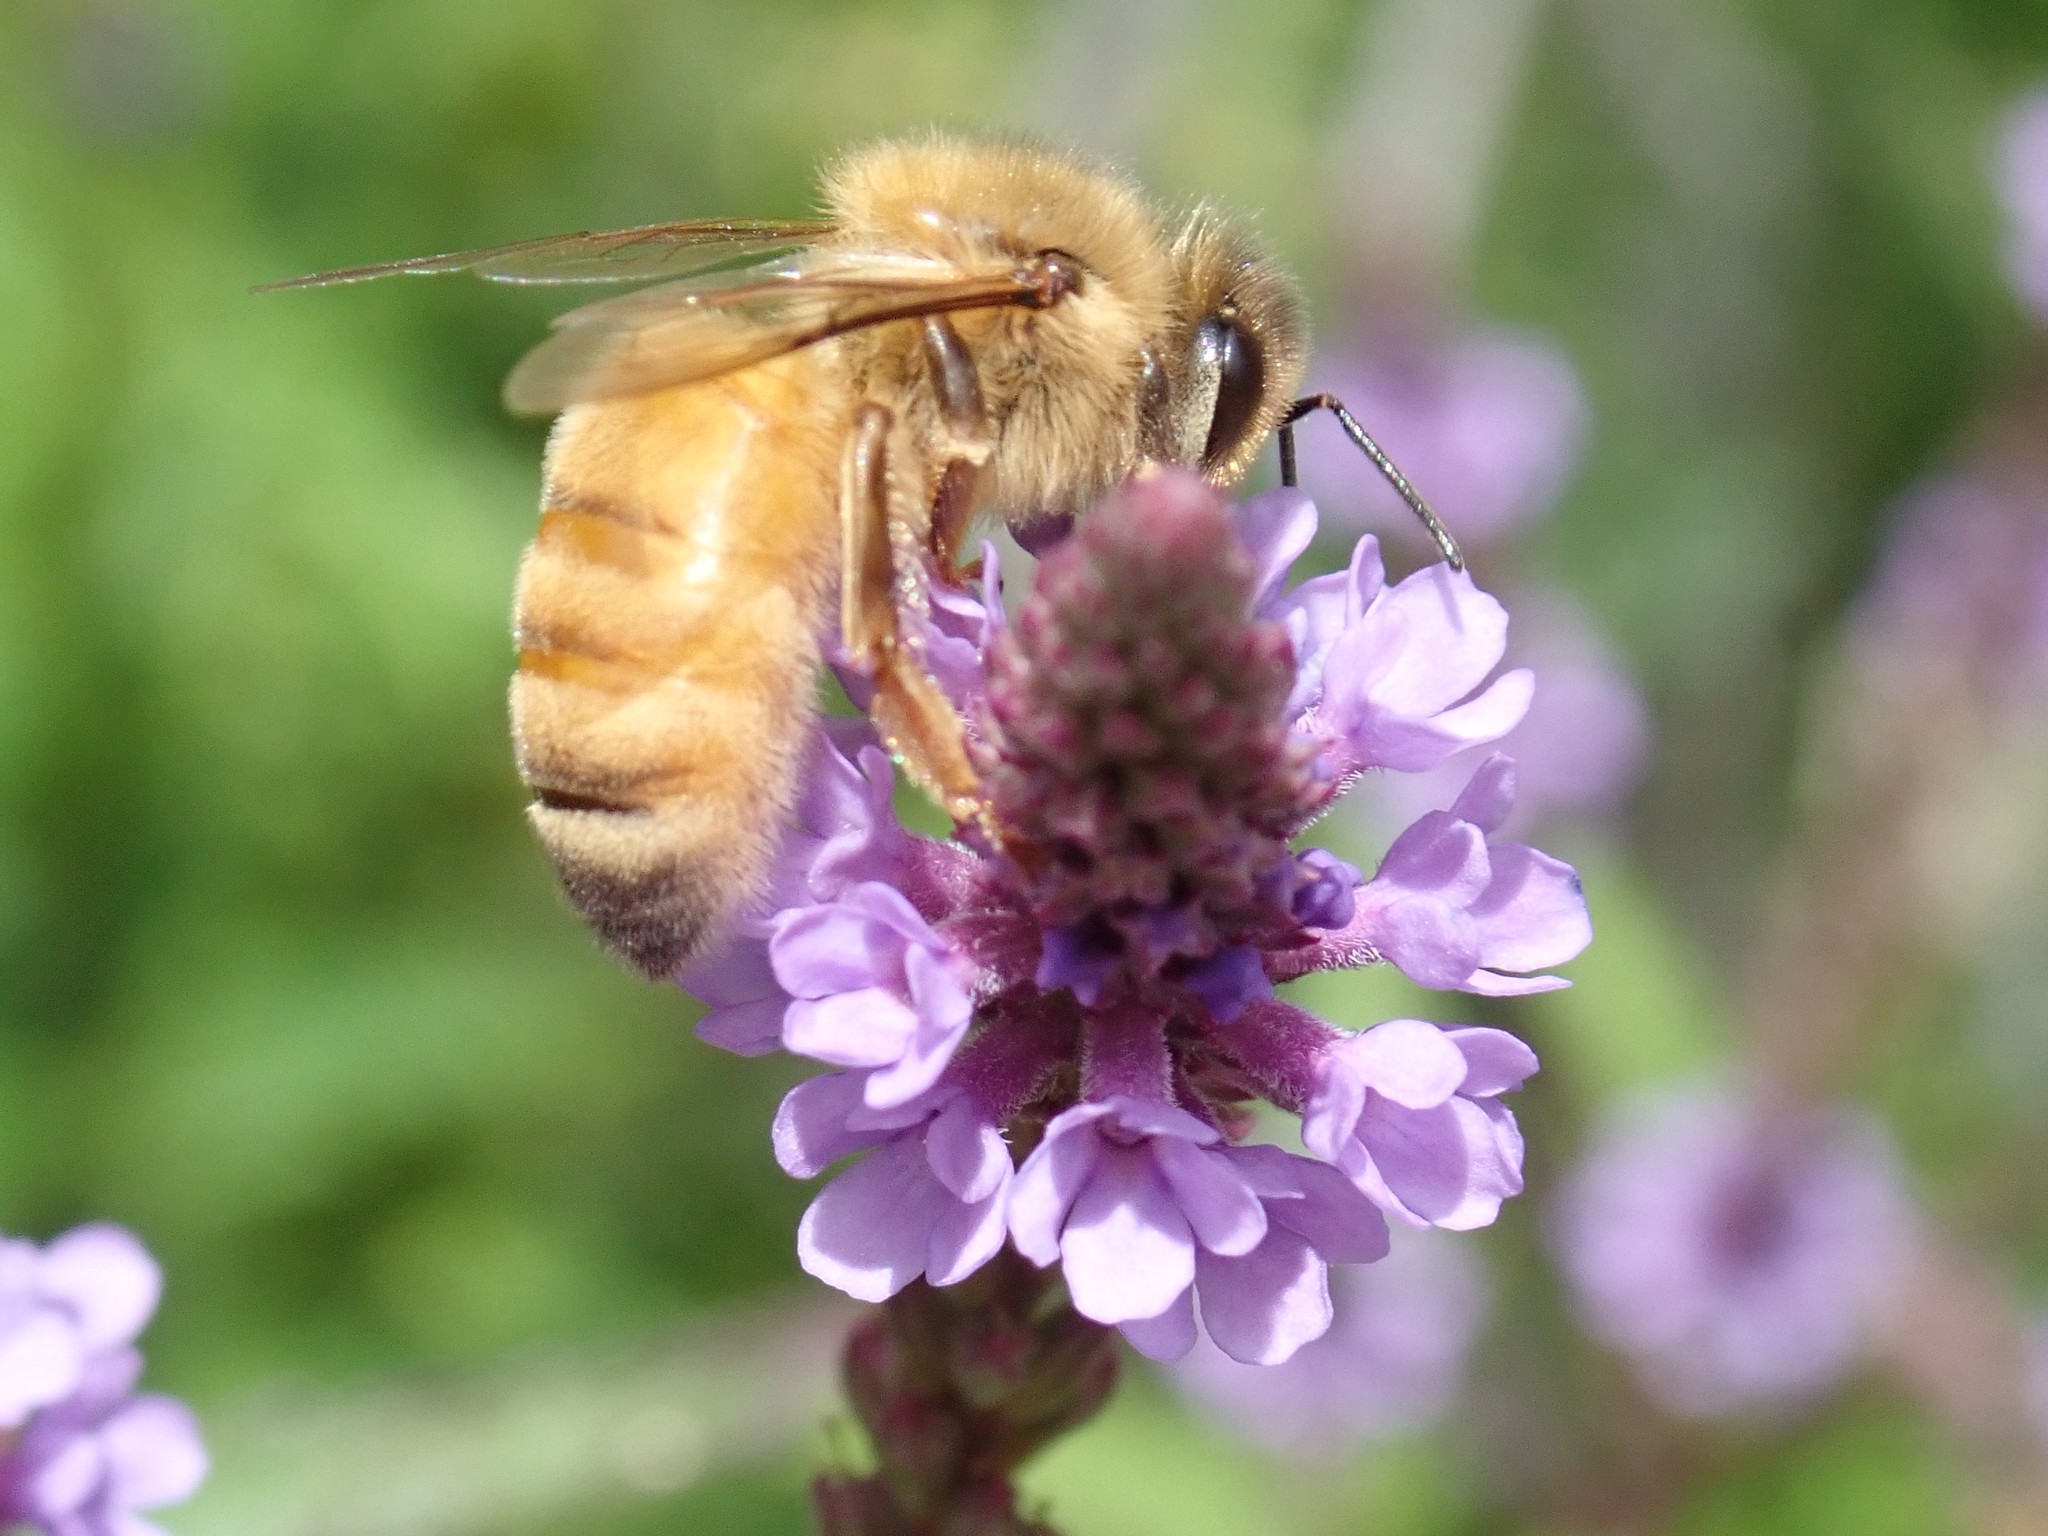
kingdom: Animalia
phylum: Arthropoda
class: Insecta
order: Hymenoptera
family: Apidae
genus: Apis
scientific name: Apis mellifera
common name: Honey bee
